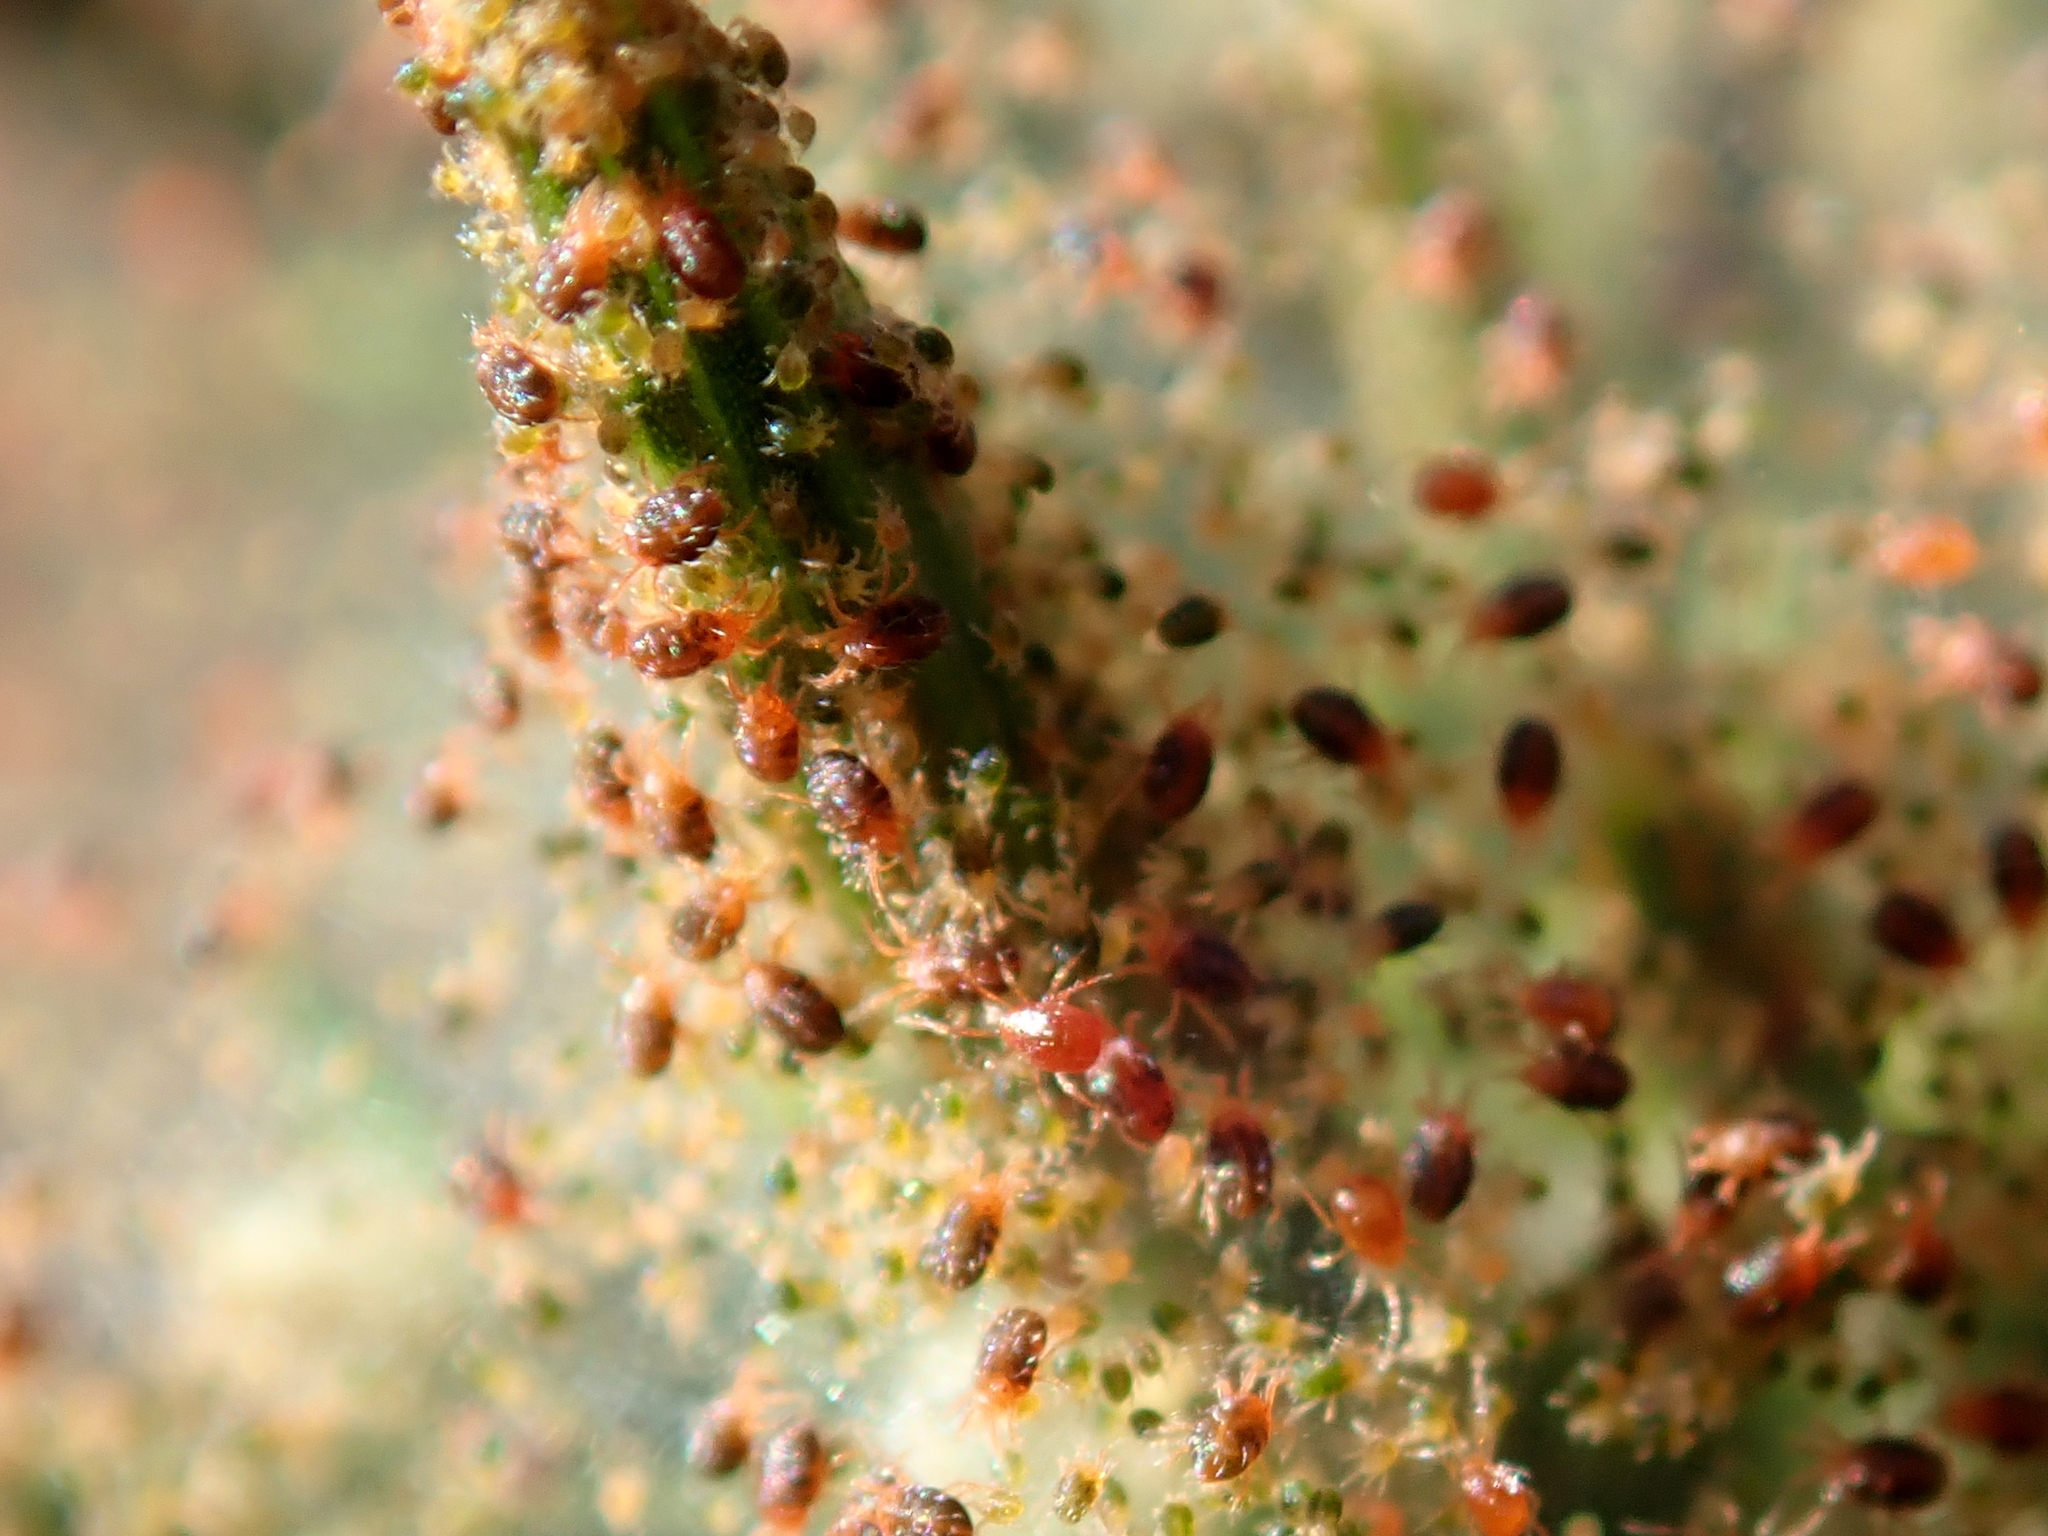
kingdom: Animalia
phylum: Arthropoda
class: Arachnida
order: Trombidiformes
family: Tetranychidae
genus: Tetranychus
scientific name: Tetranychus lintearius
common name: Gorse spider mite
